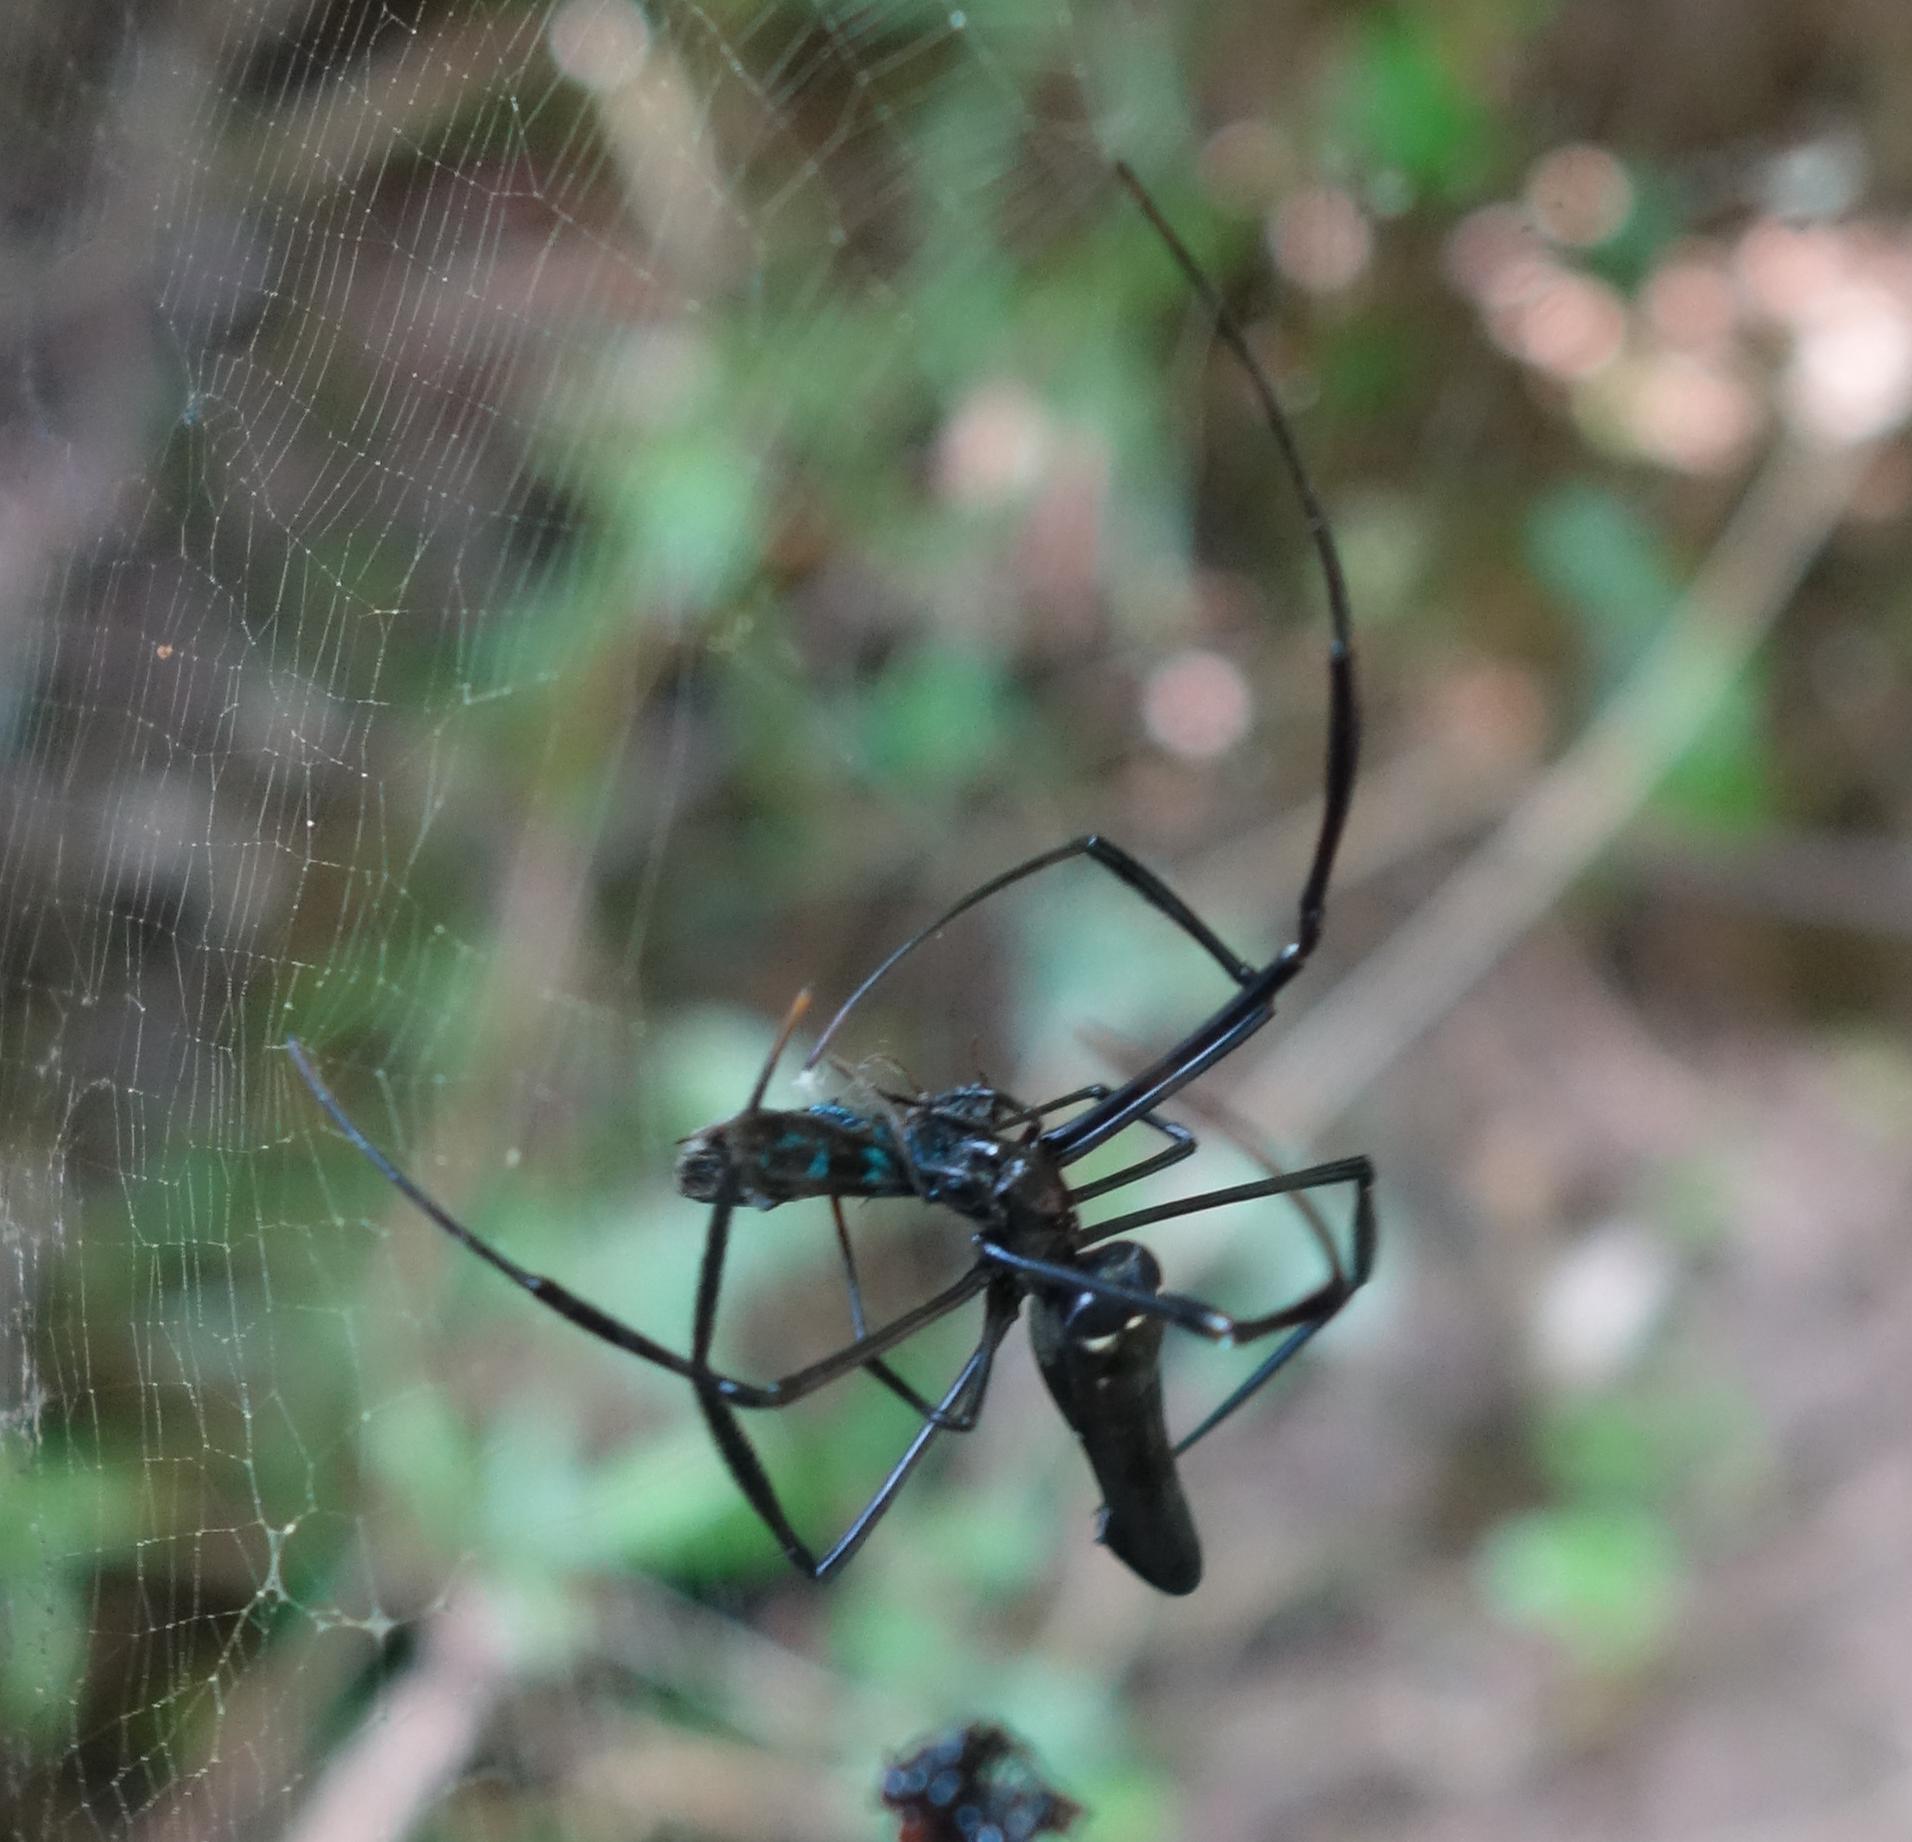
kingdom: Animalia
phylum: Arthropoda
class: Arachnida
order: Araneae
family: Araneidae
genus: Nephila
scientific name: Nephila pilipes
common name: Giant golden orb weaver
